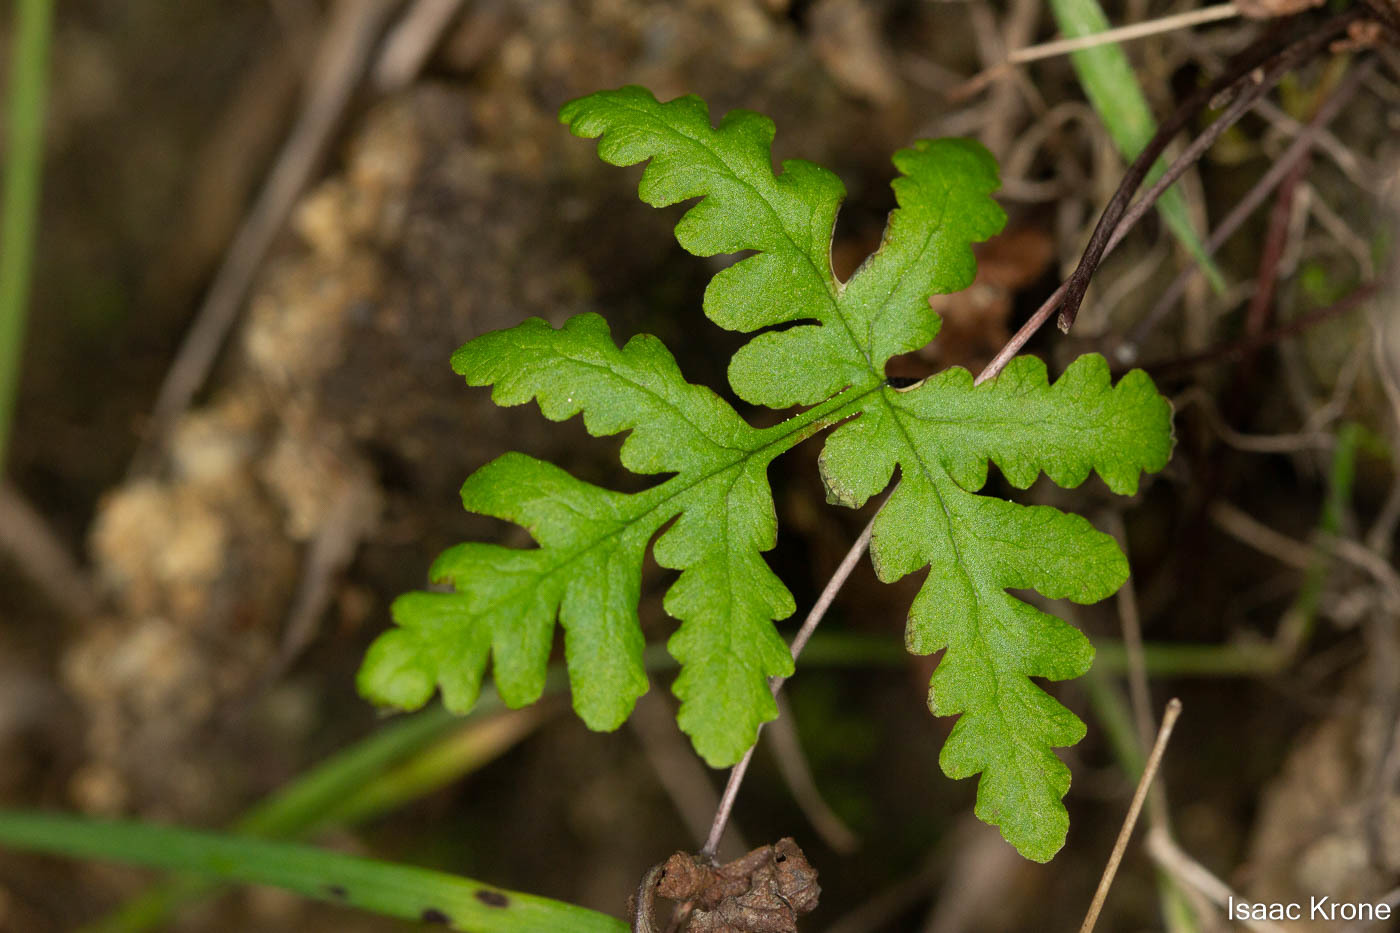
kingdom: Plantae
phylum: Tracheophyta
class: Polypodiopsida
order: Polypodiales
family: Pteridaceae
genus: Pentagramma
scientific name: Pentagramma triangularis
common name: Gold fern
